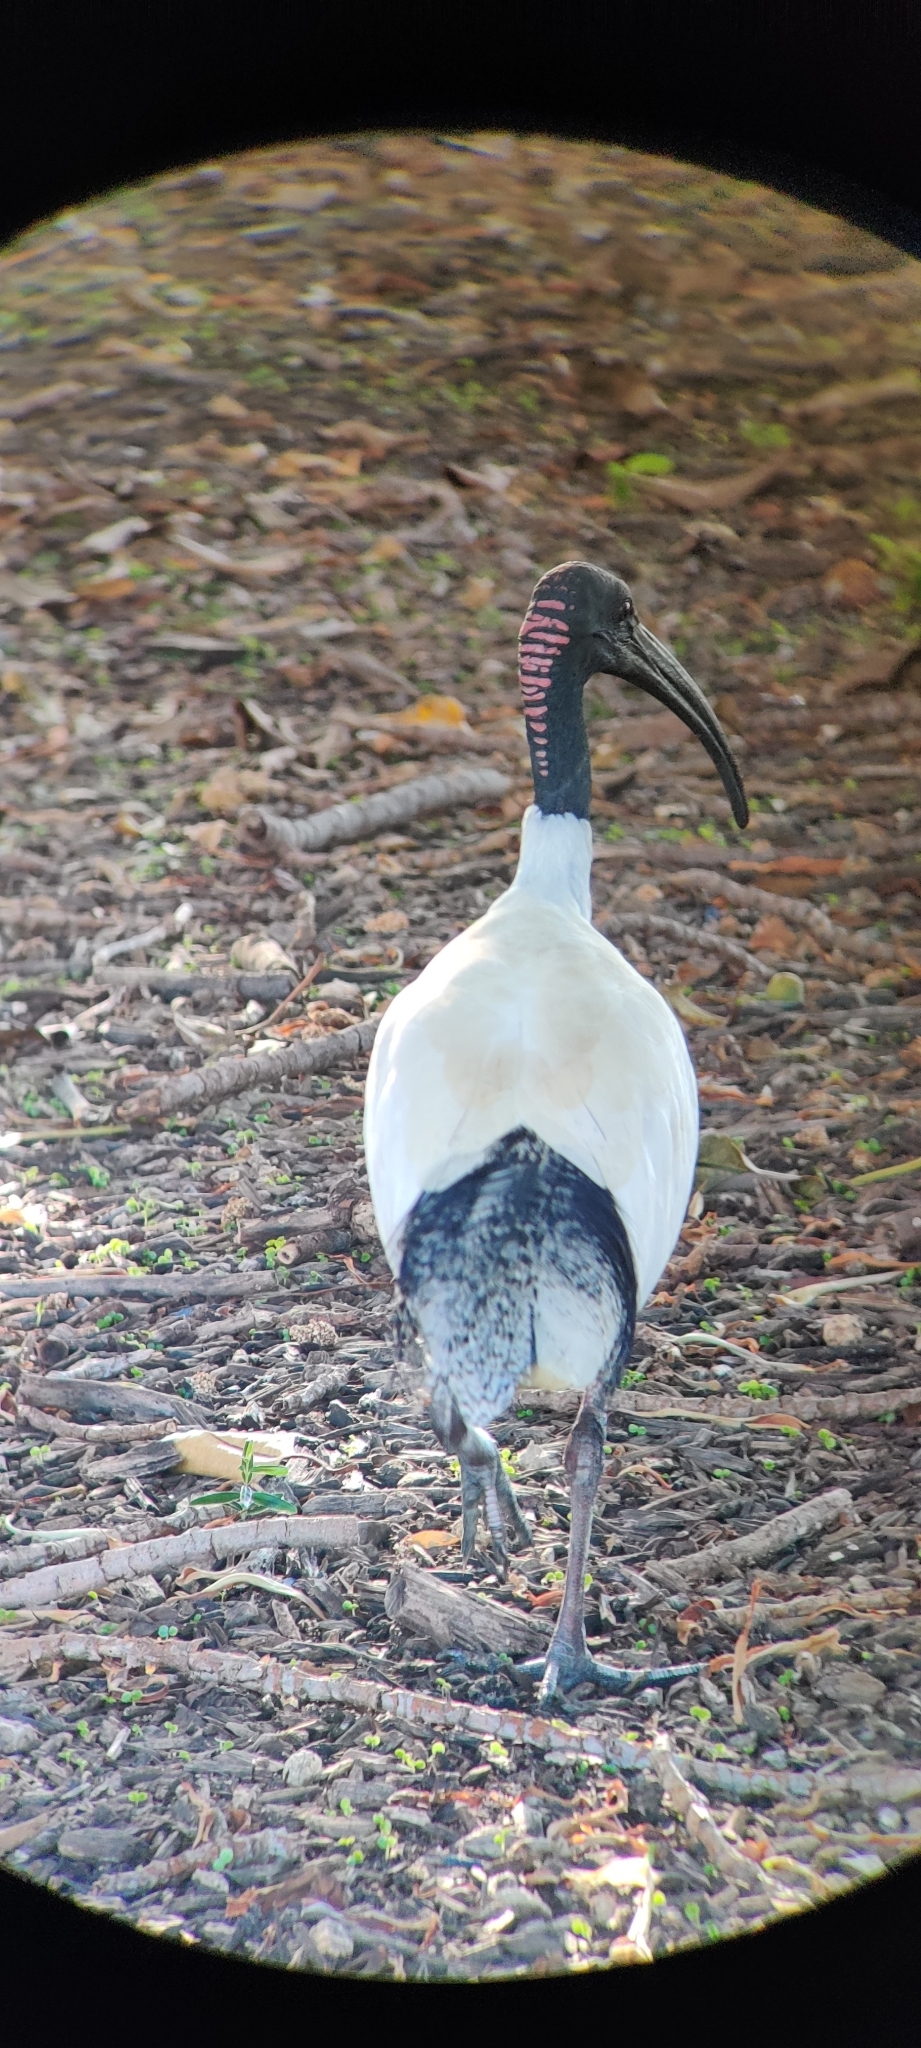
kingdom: Animalia
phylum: Chordata
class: Aves
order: Pelecaniformes
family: Threskiornithidae
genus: Threskiornis
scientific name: Threskiornis molucca
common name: Australian white ibis
